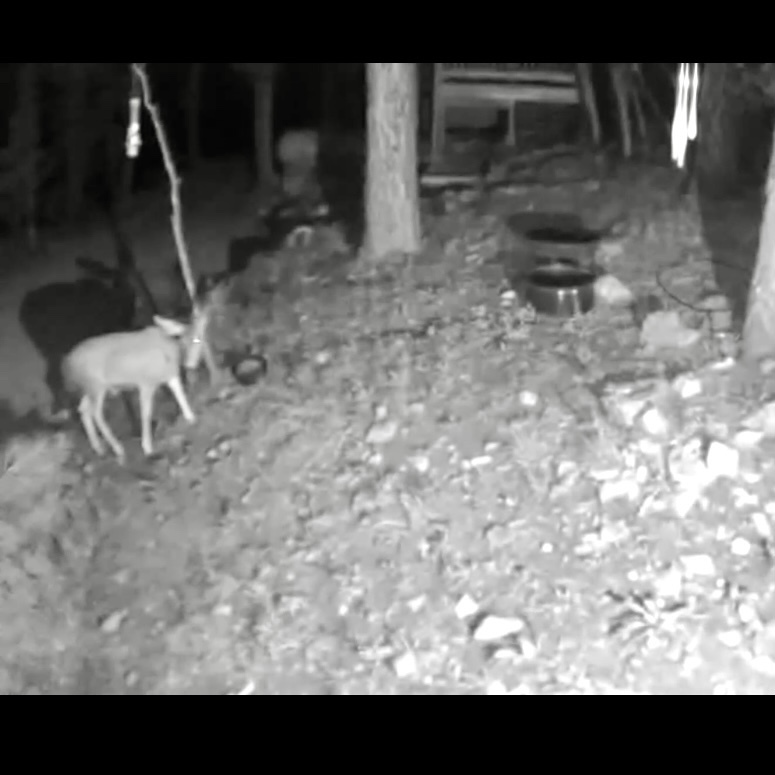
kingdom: Animalia
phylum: Chordata
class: Mammalia
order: Artiodactyla
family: Cervidae
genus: Odocoileus
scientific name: Odocoileus hemionus
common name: Mule deer
